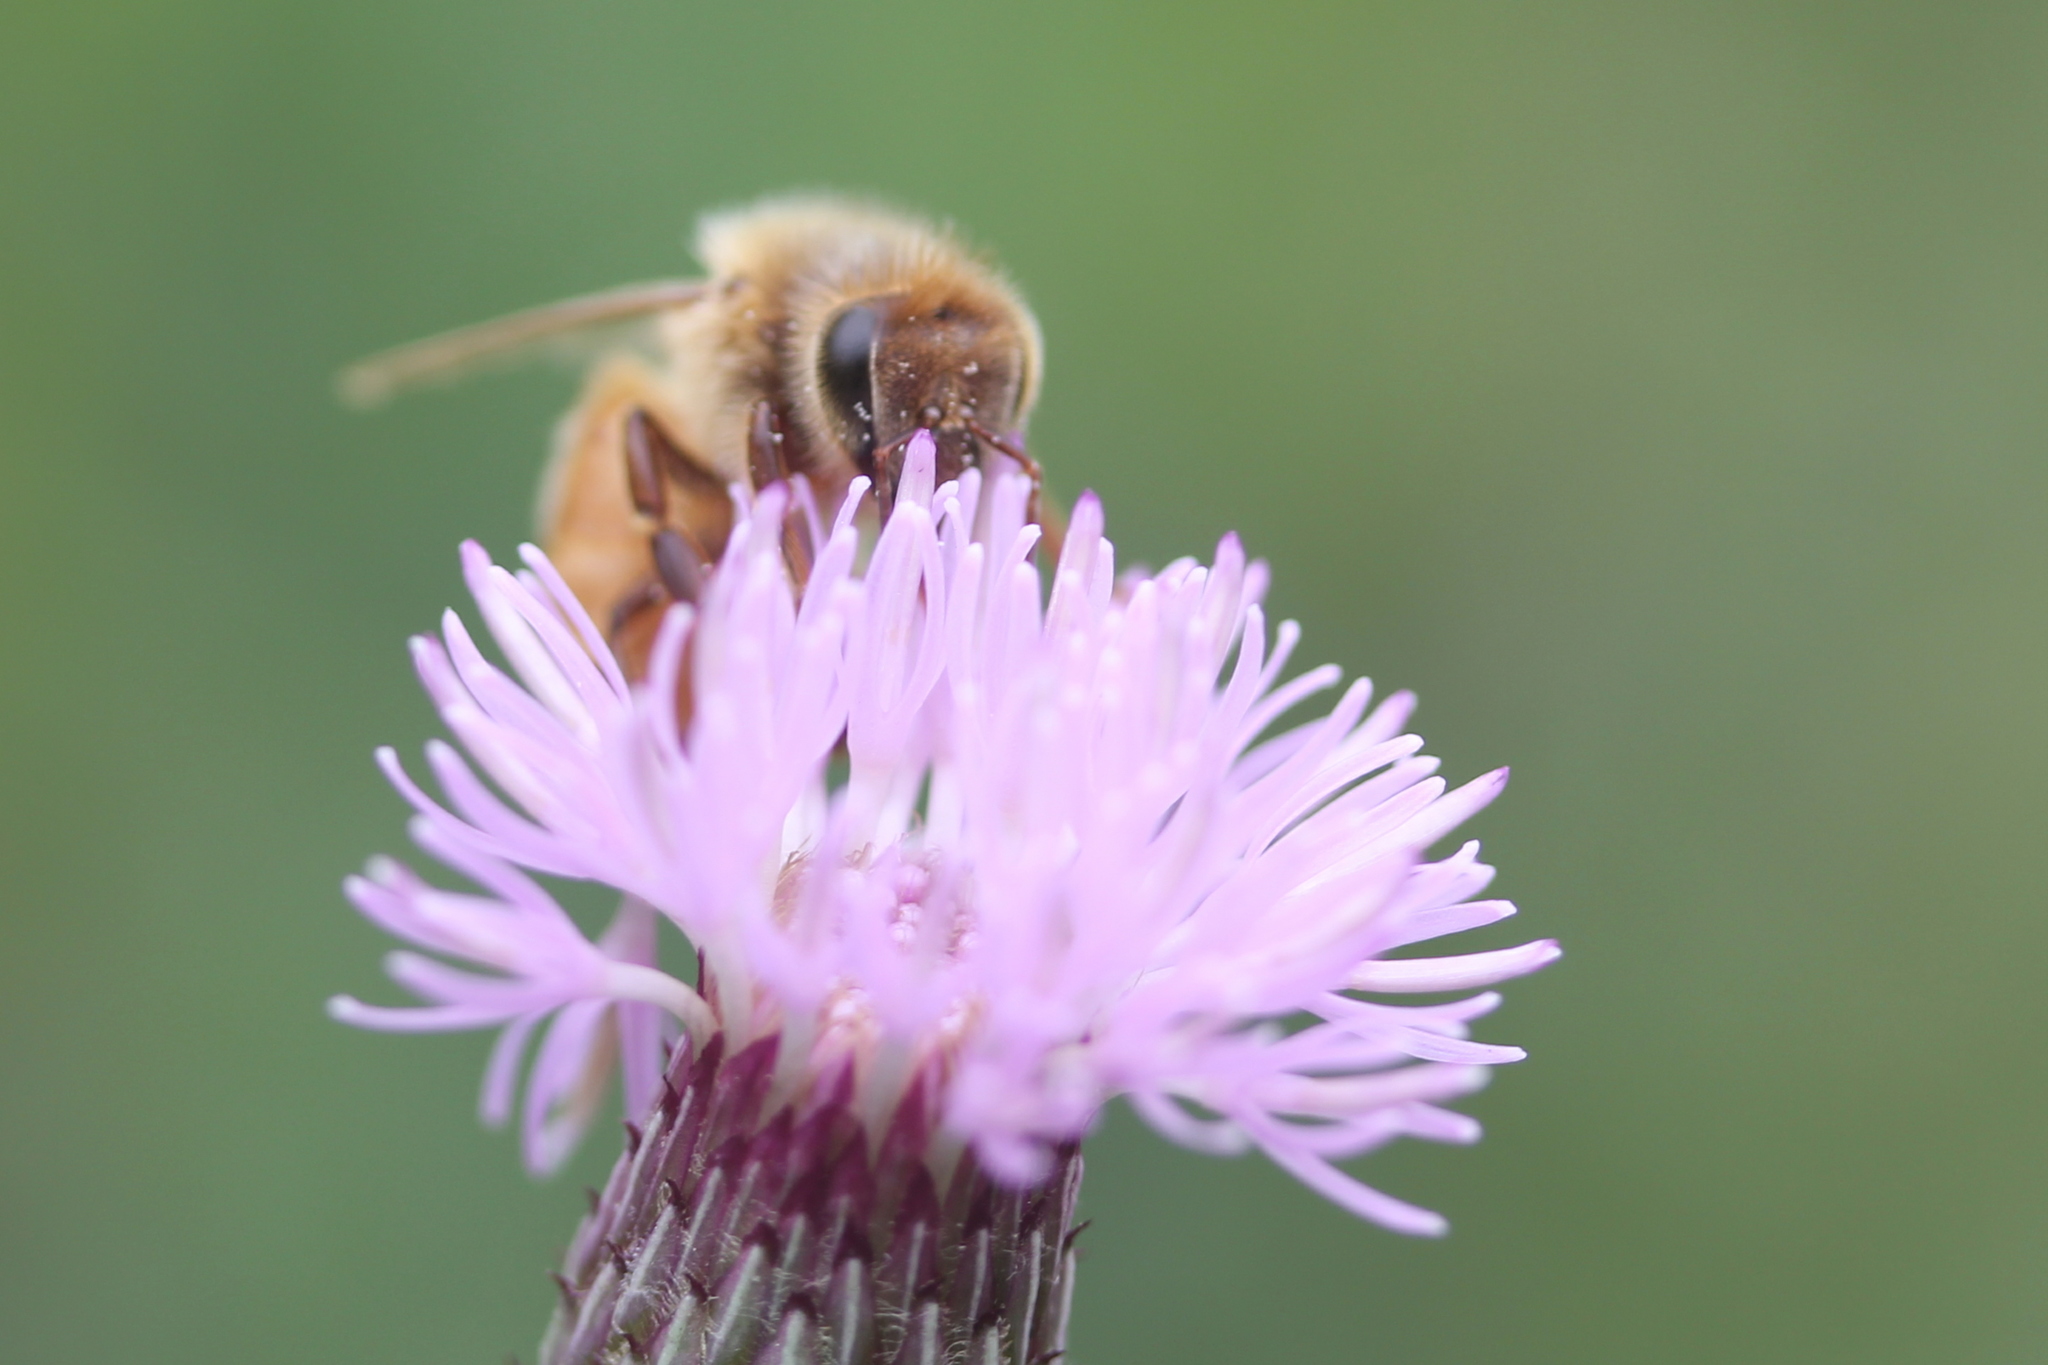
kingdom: Animalia
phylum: Arthropoda
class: Insecta
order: Hymenoptera
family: Apidae
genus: Apis
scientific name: Apis mellifera
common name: Honey bee
